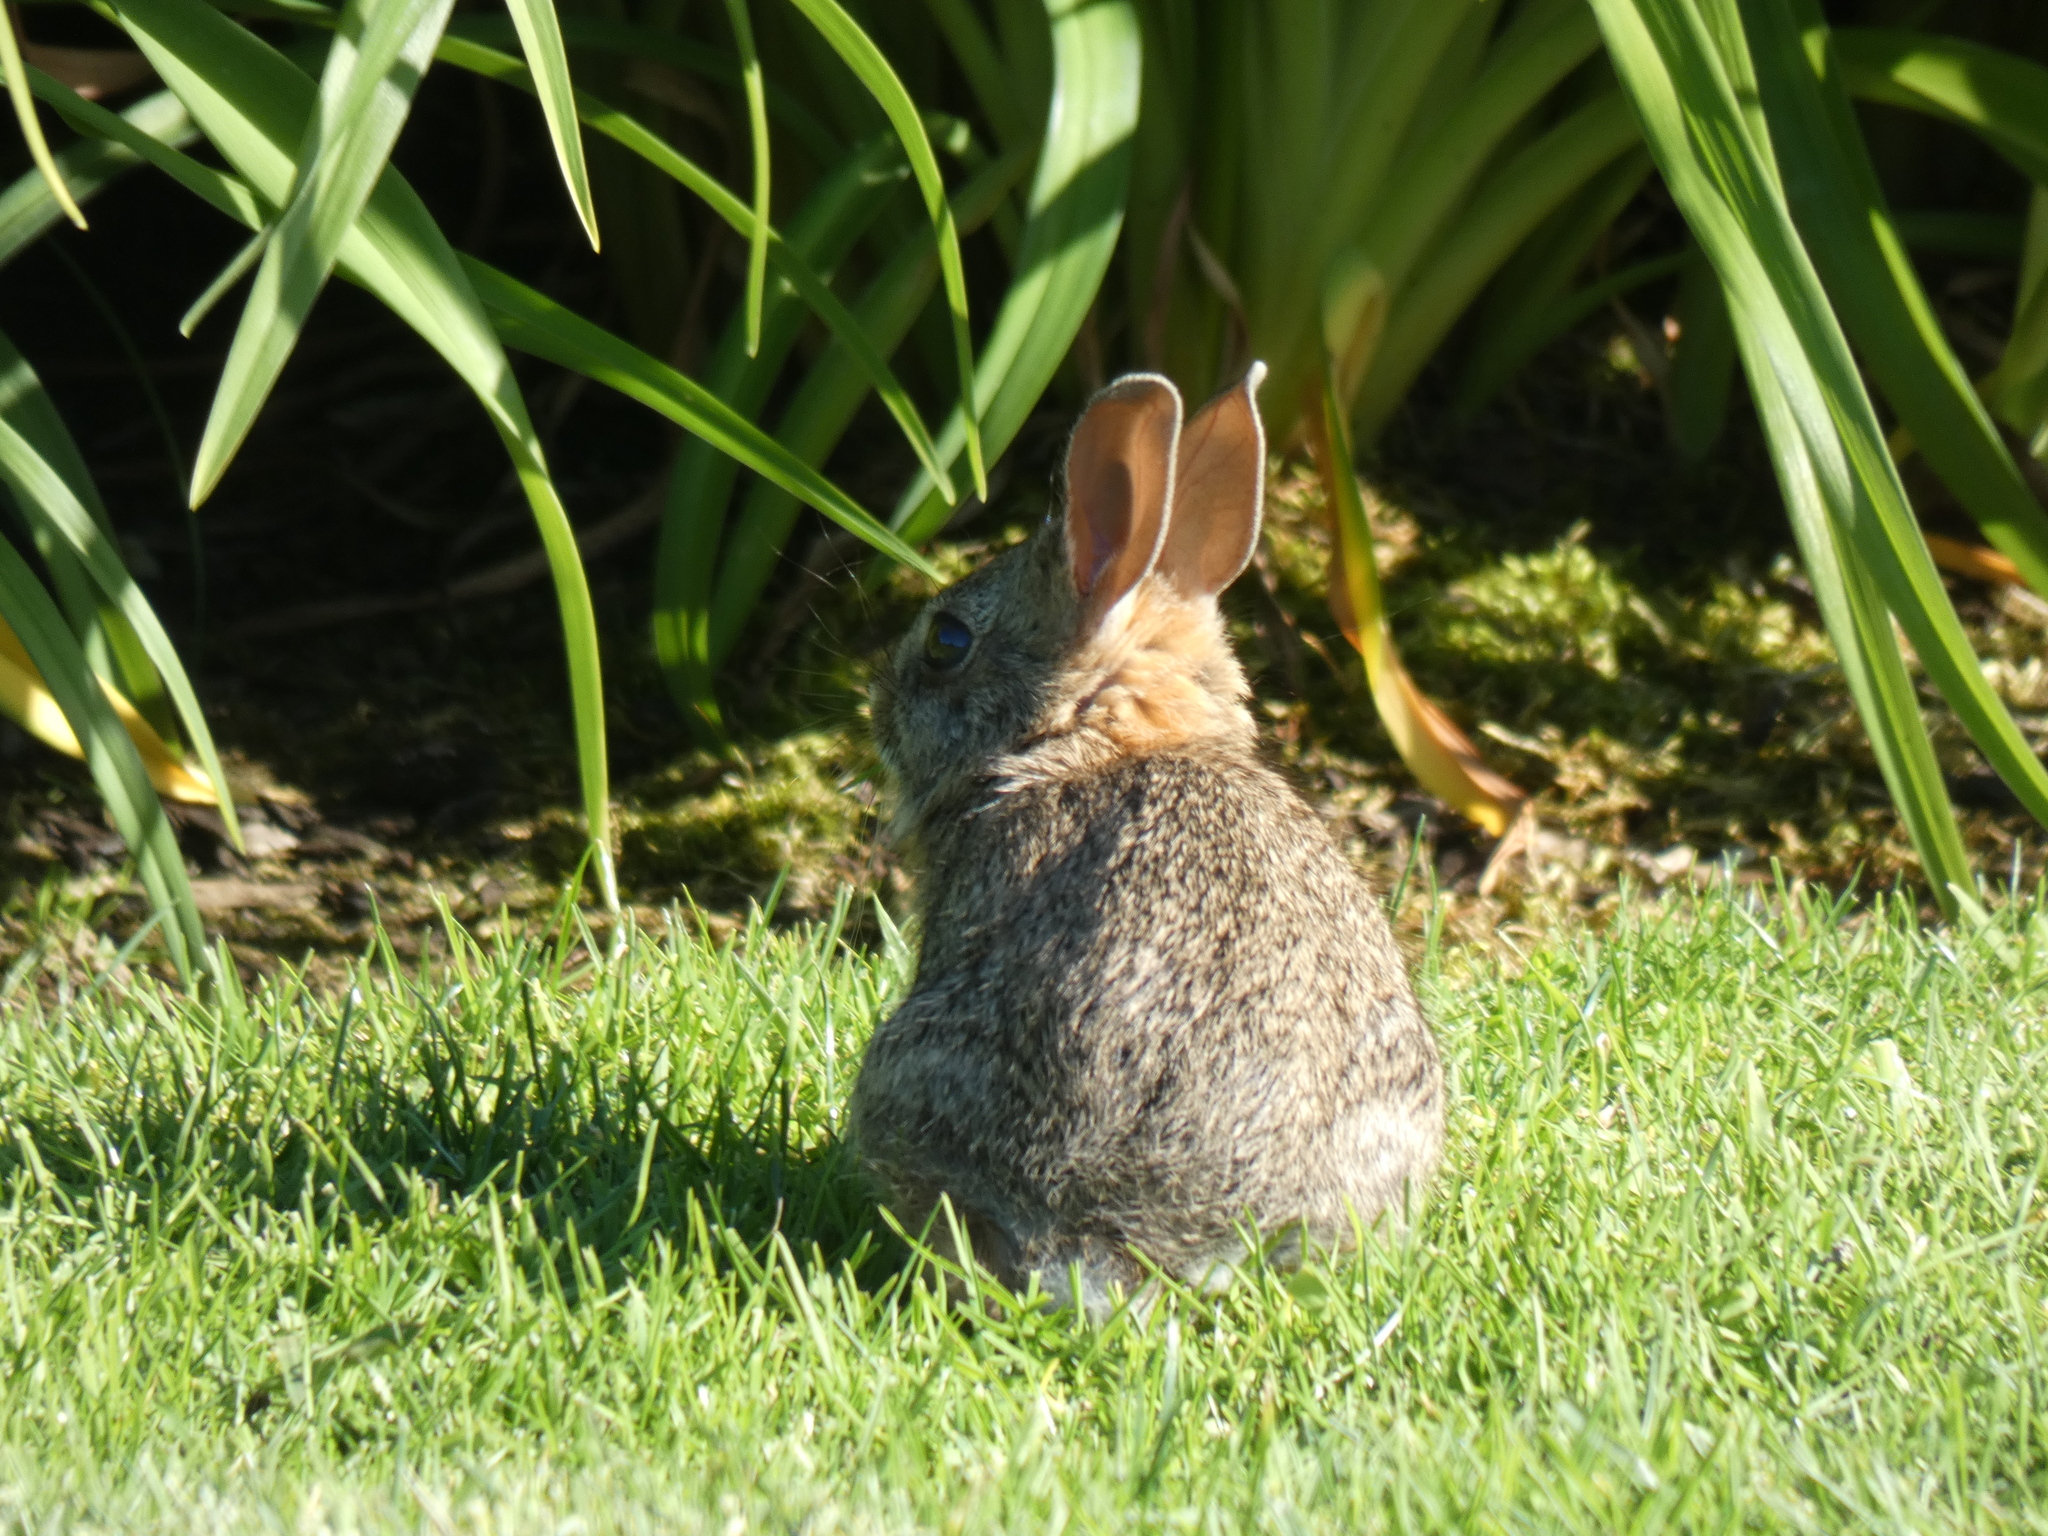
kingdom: Animalia
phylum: Chordata
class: Mammalia
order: Lagomorpha
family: Leporidae
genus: Sylvilagus
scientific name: Sylvilagus floridanus
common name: Eastern cottontail
